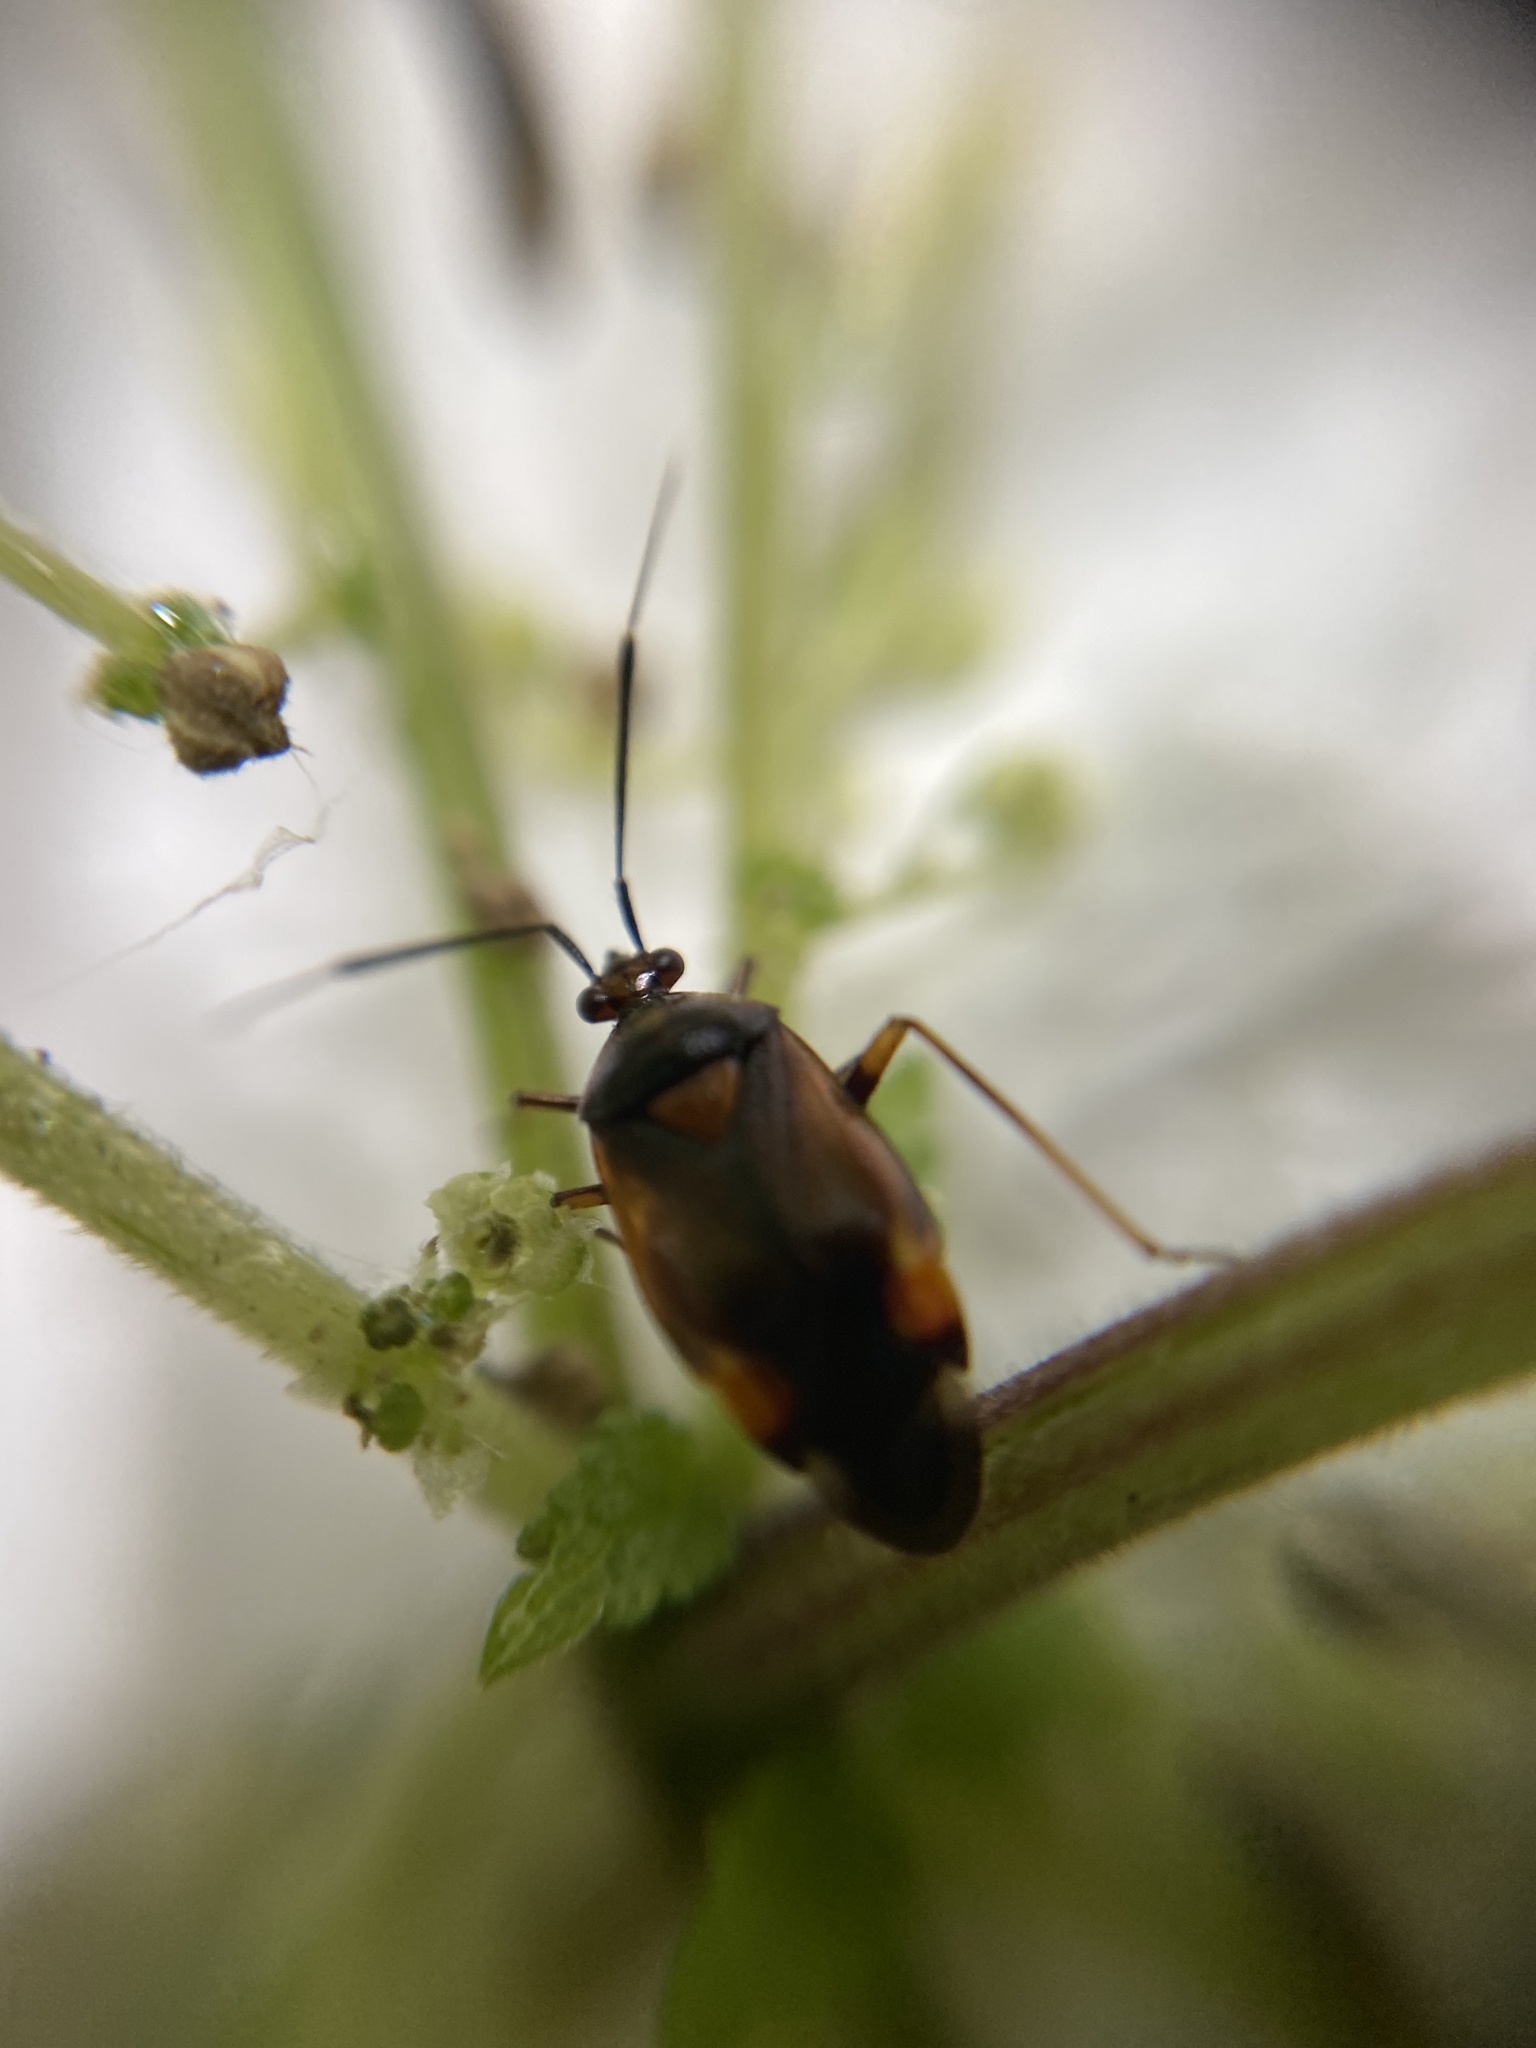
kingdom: Animalia
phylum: Arthropoda
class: Insecta
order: Hemiptera
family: Miridae
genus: Deraeocoris
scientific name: Deraeocoris ruber
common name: Plant bug
